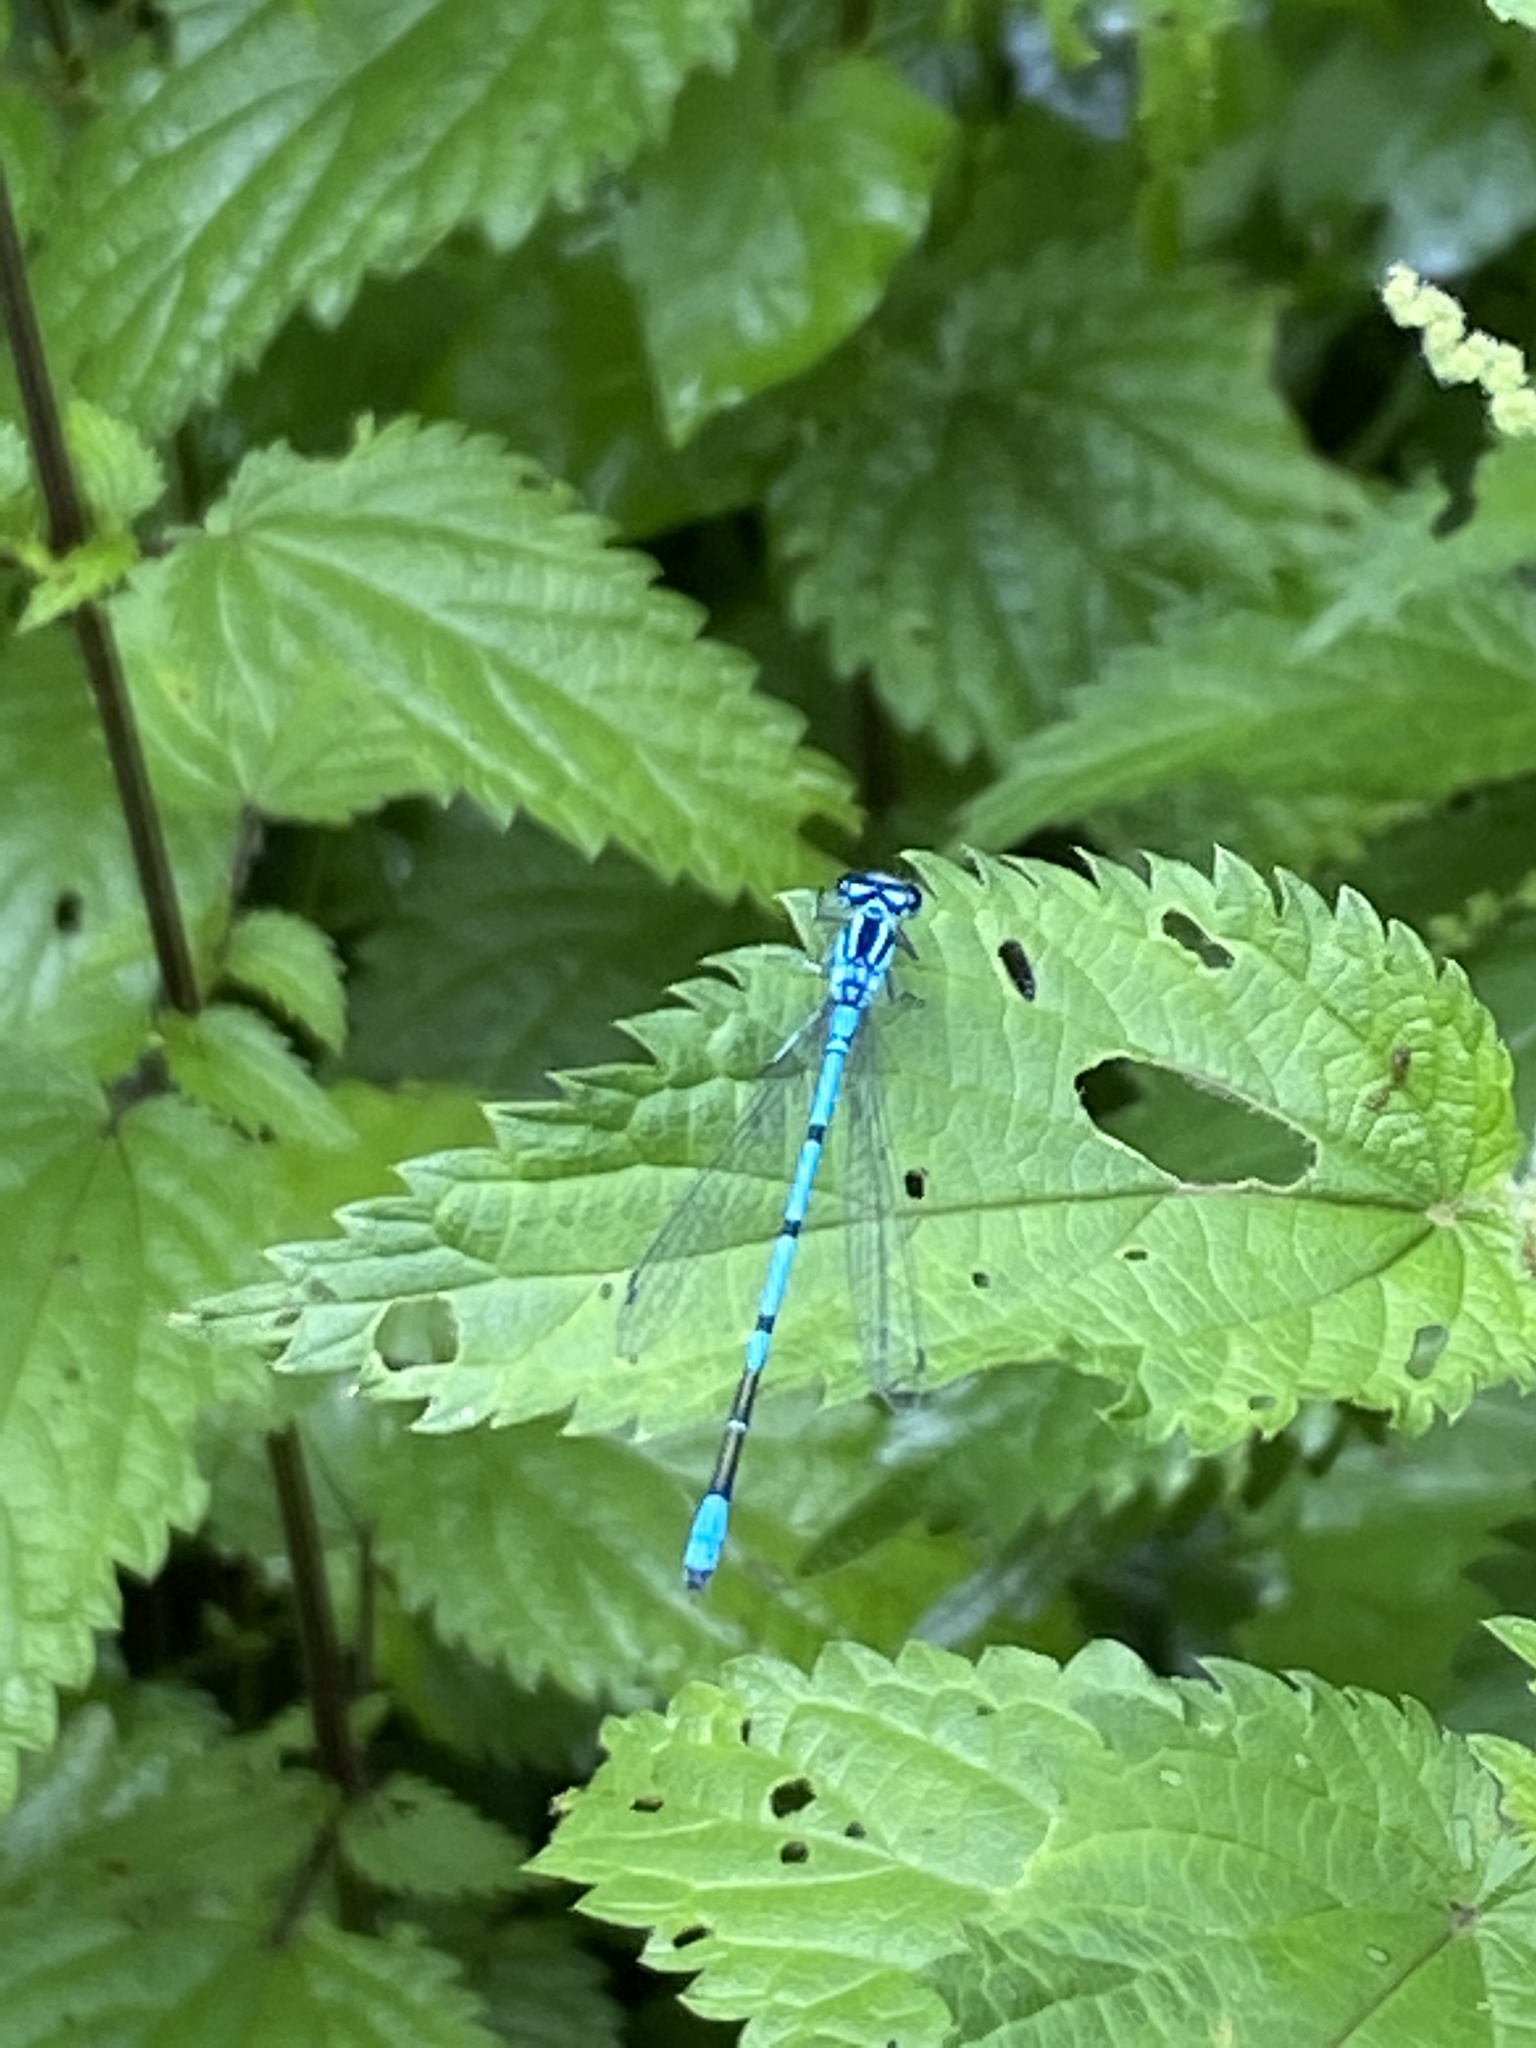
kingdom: Animalia
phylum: Arthropoda
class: Insecta
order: Odonata
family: Coenagrionidae
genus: Coenagrion
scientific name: Coenagrion puella
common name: Azure damselfly
